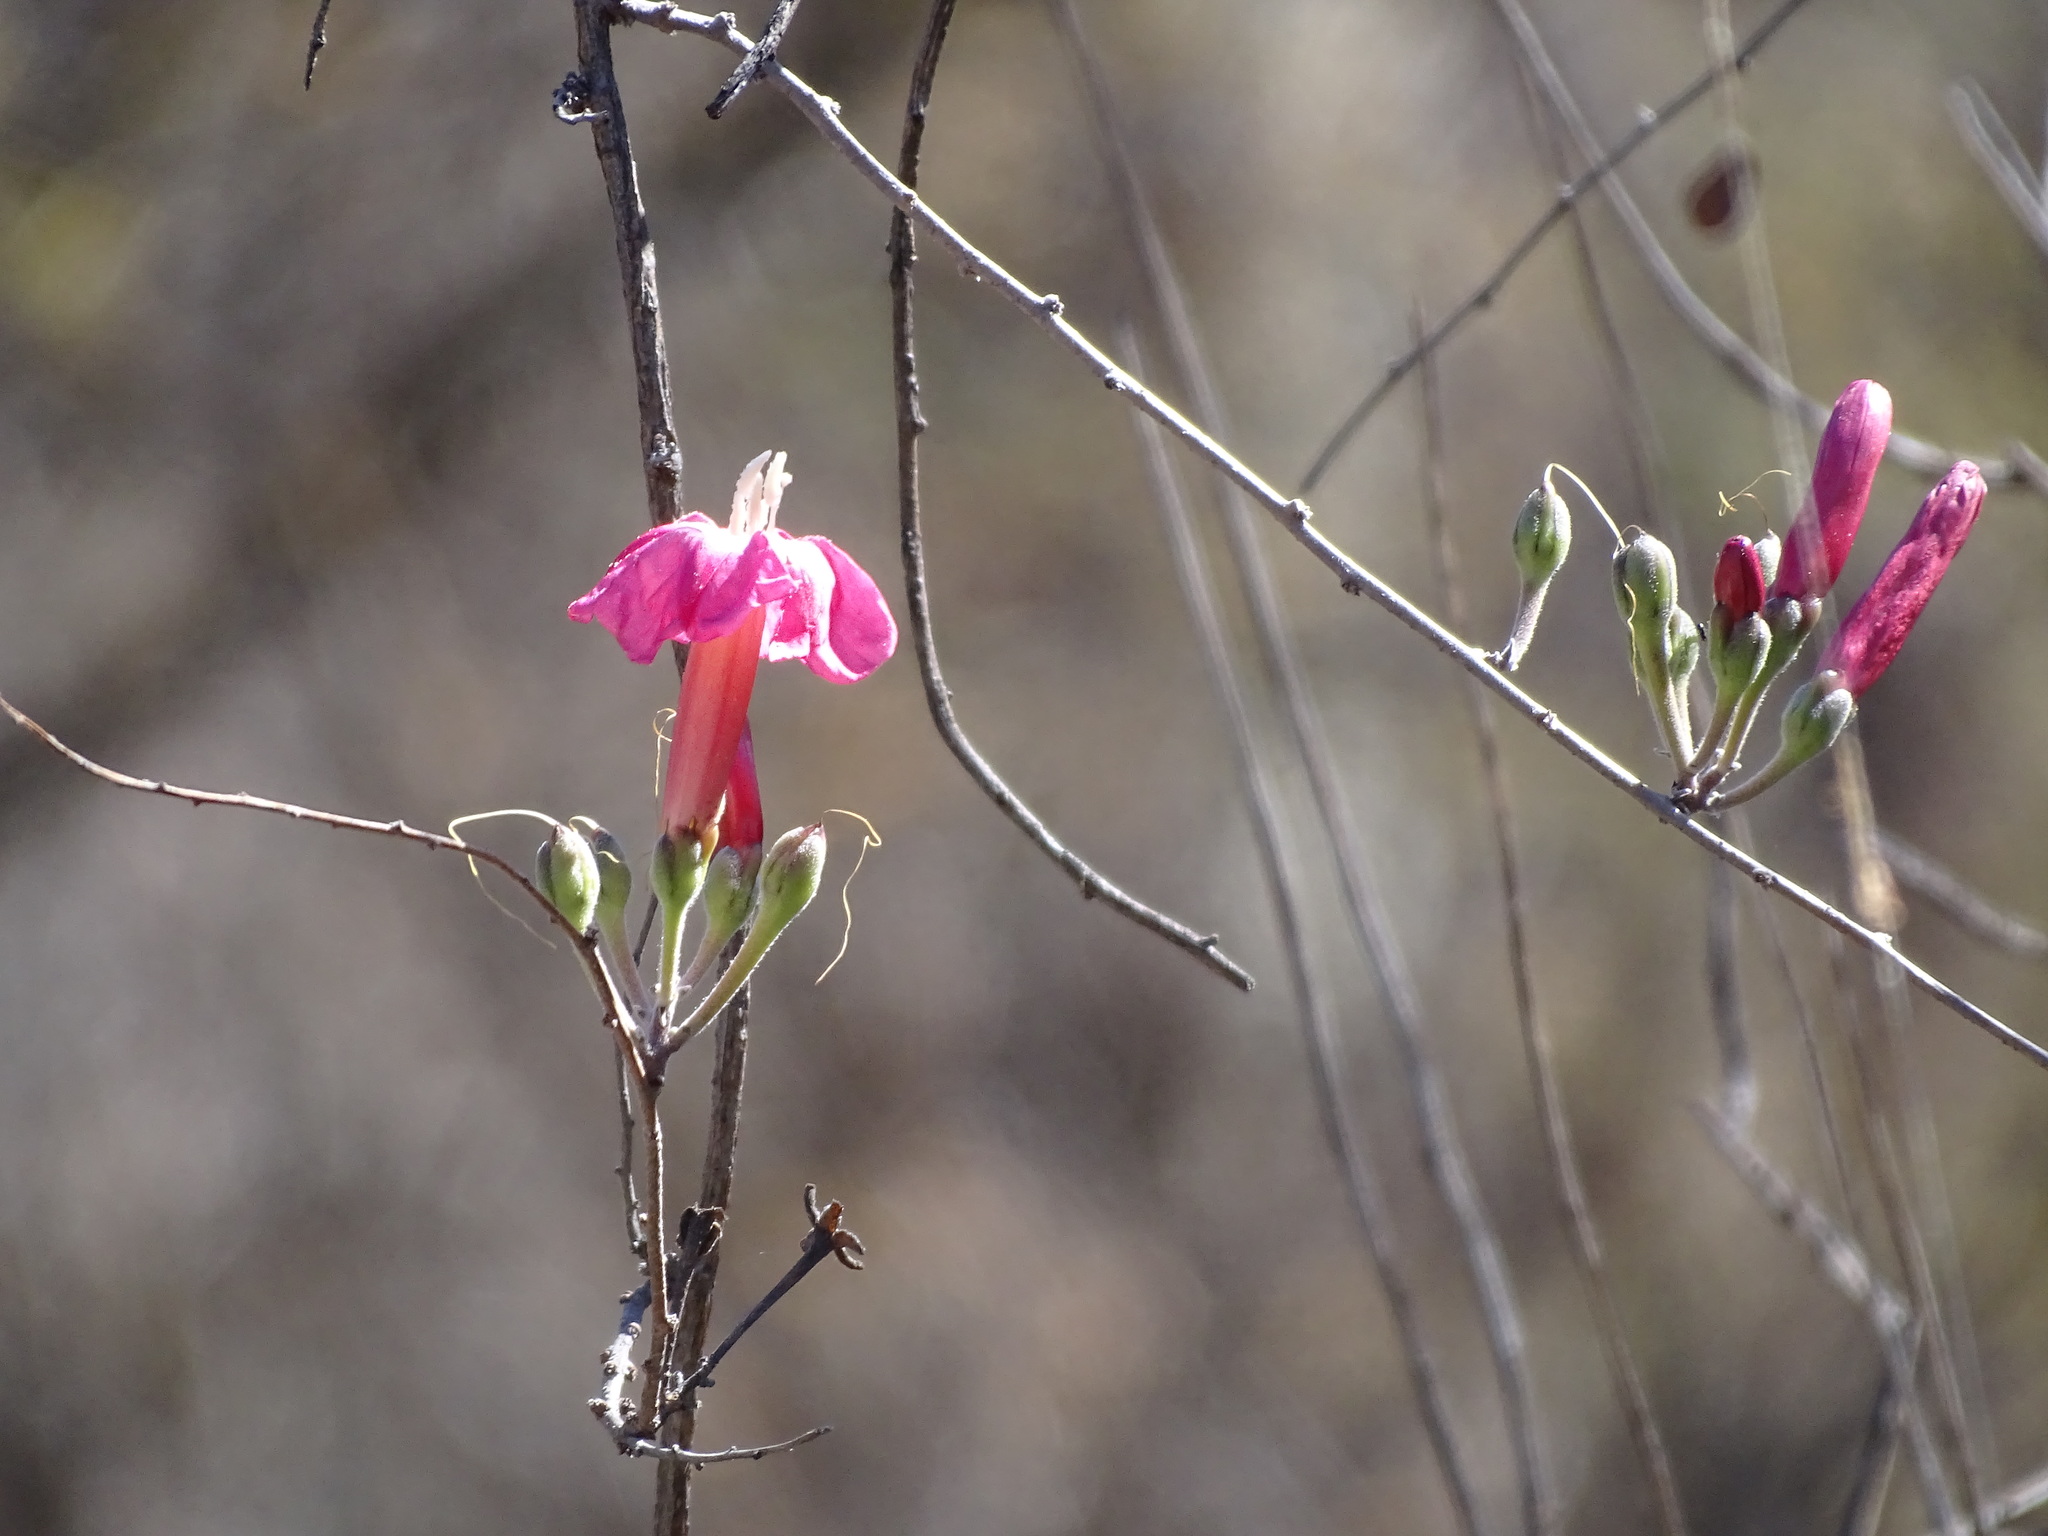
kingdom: Plantae
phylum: Tracheophyta
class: Magnoliopsida
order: Solanales
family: Convolvulaceae
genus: Ipomoea
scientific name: Ipomoea conzattii
